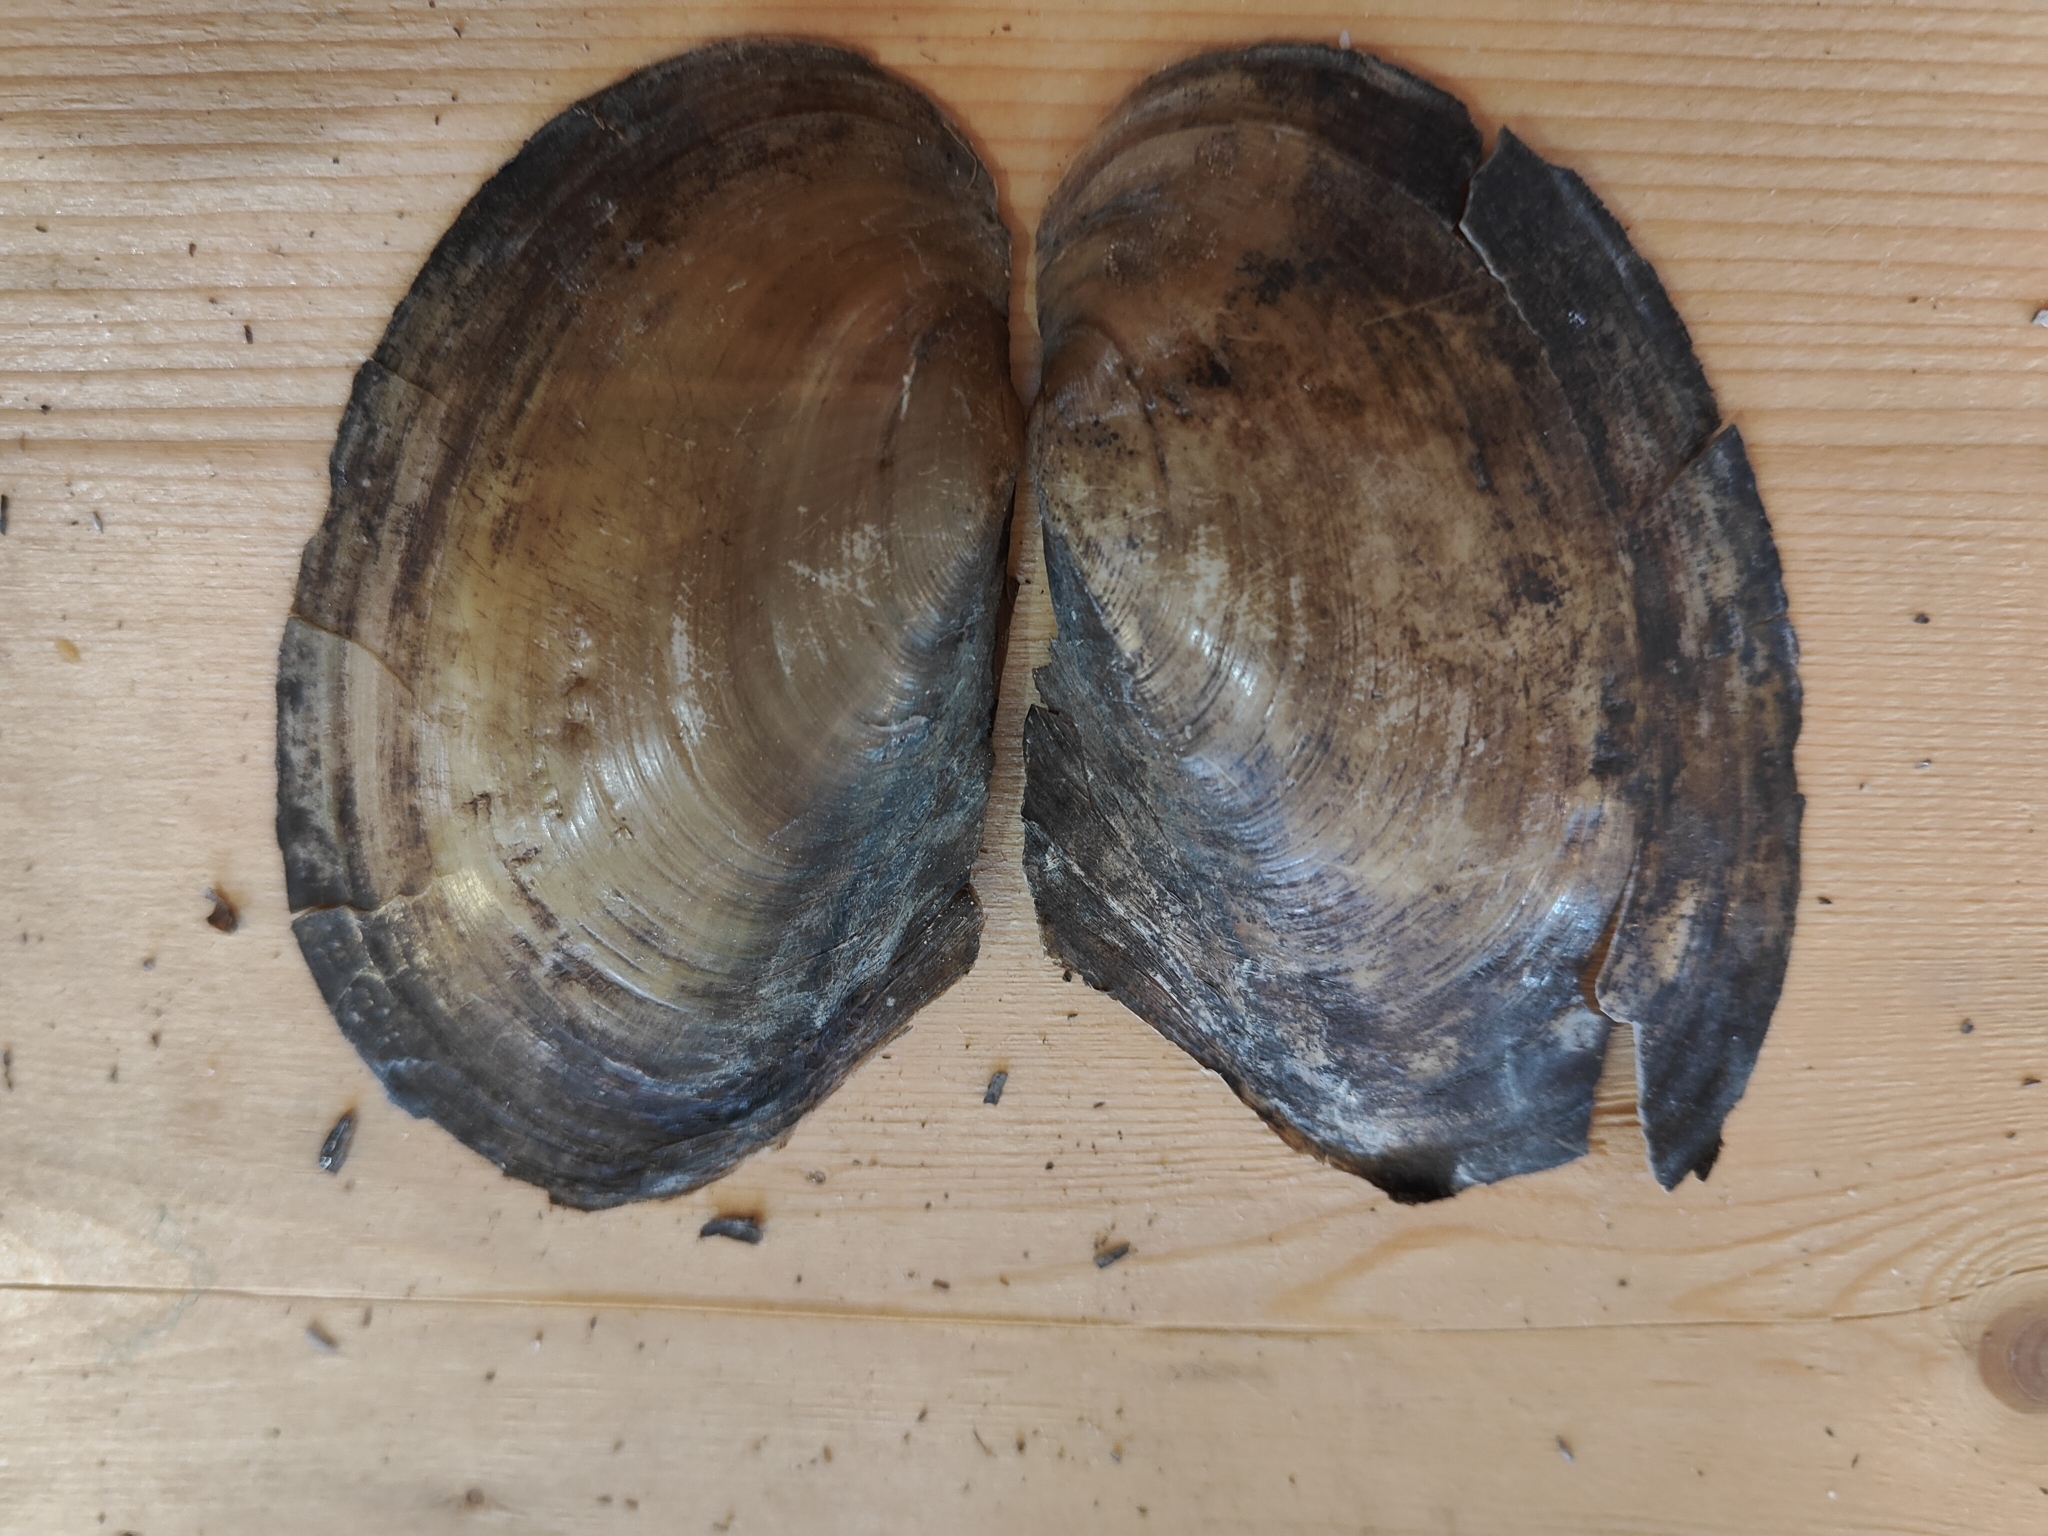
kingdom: Animalia
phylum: Mollusca
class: Bivalvia
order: Unionida
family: Unionidae
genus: Potamilus
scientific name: Potamilus fragilis
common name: Fragile papershell
